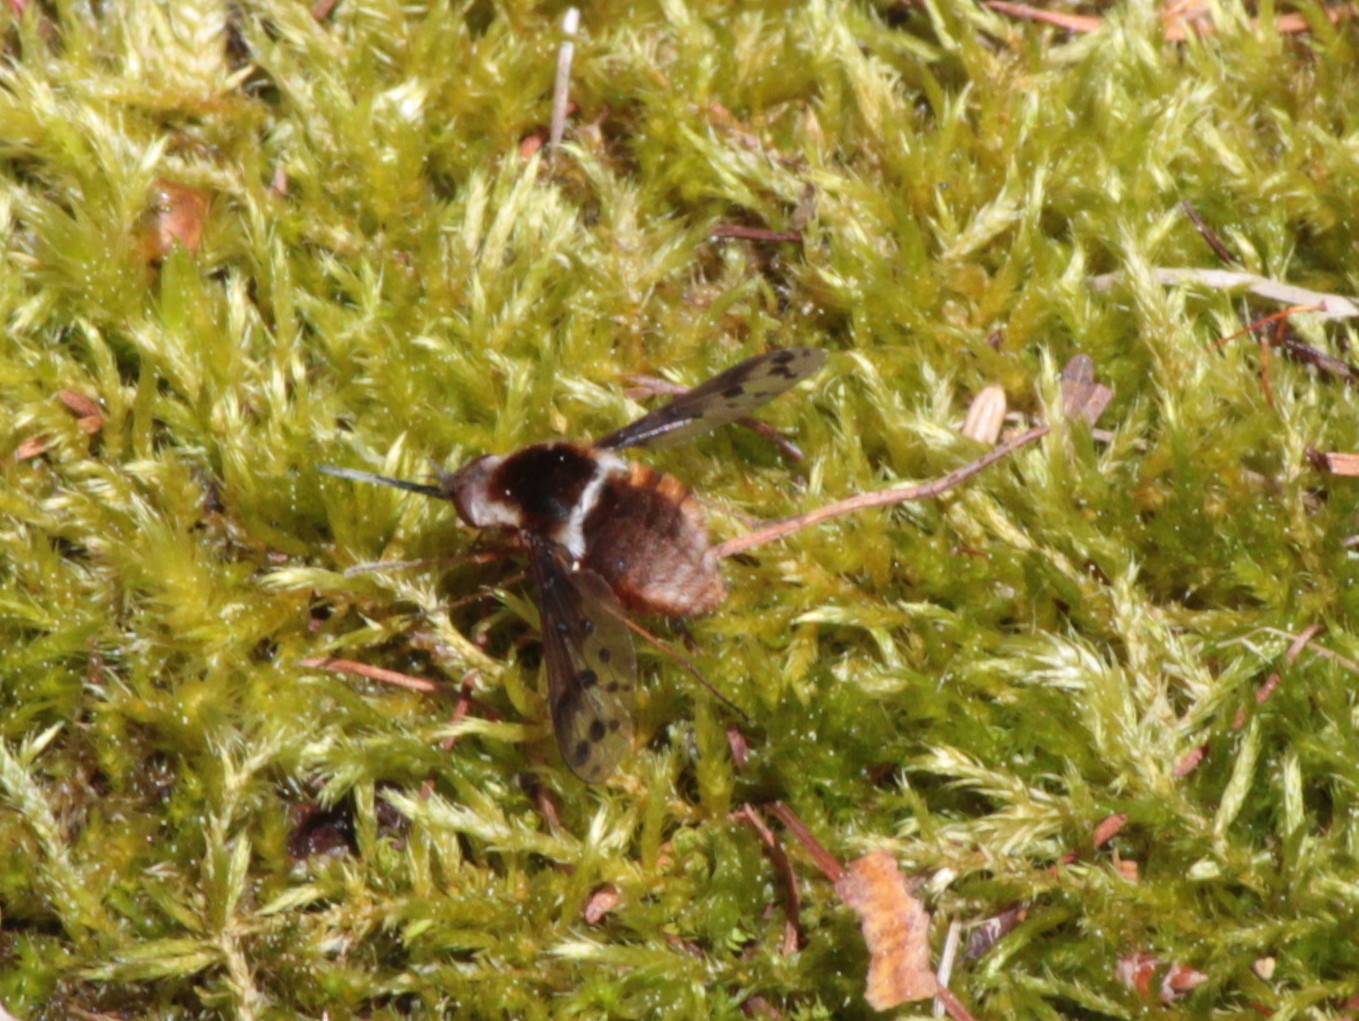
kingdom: Animalia
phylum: Arthropoda
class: Insecta
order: Diptera
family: Bombyliidae
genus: Bombylius
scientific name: Bombylius pygmaeus
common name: Pygmy bee fly
